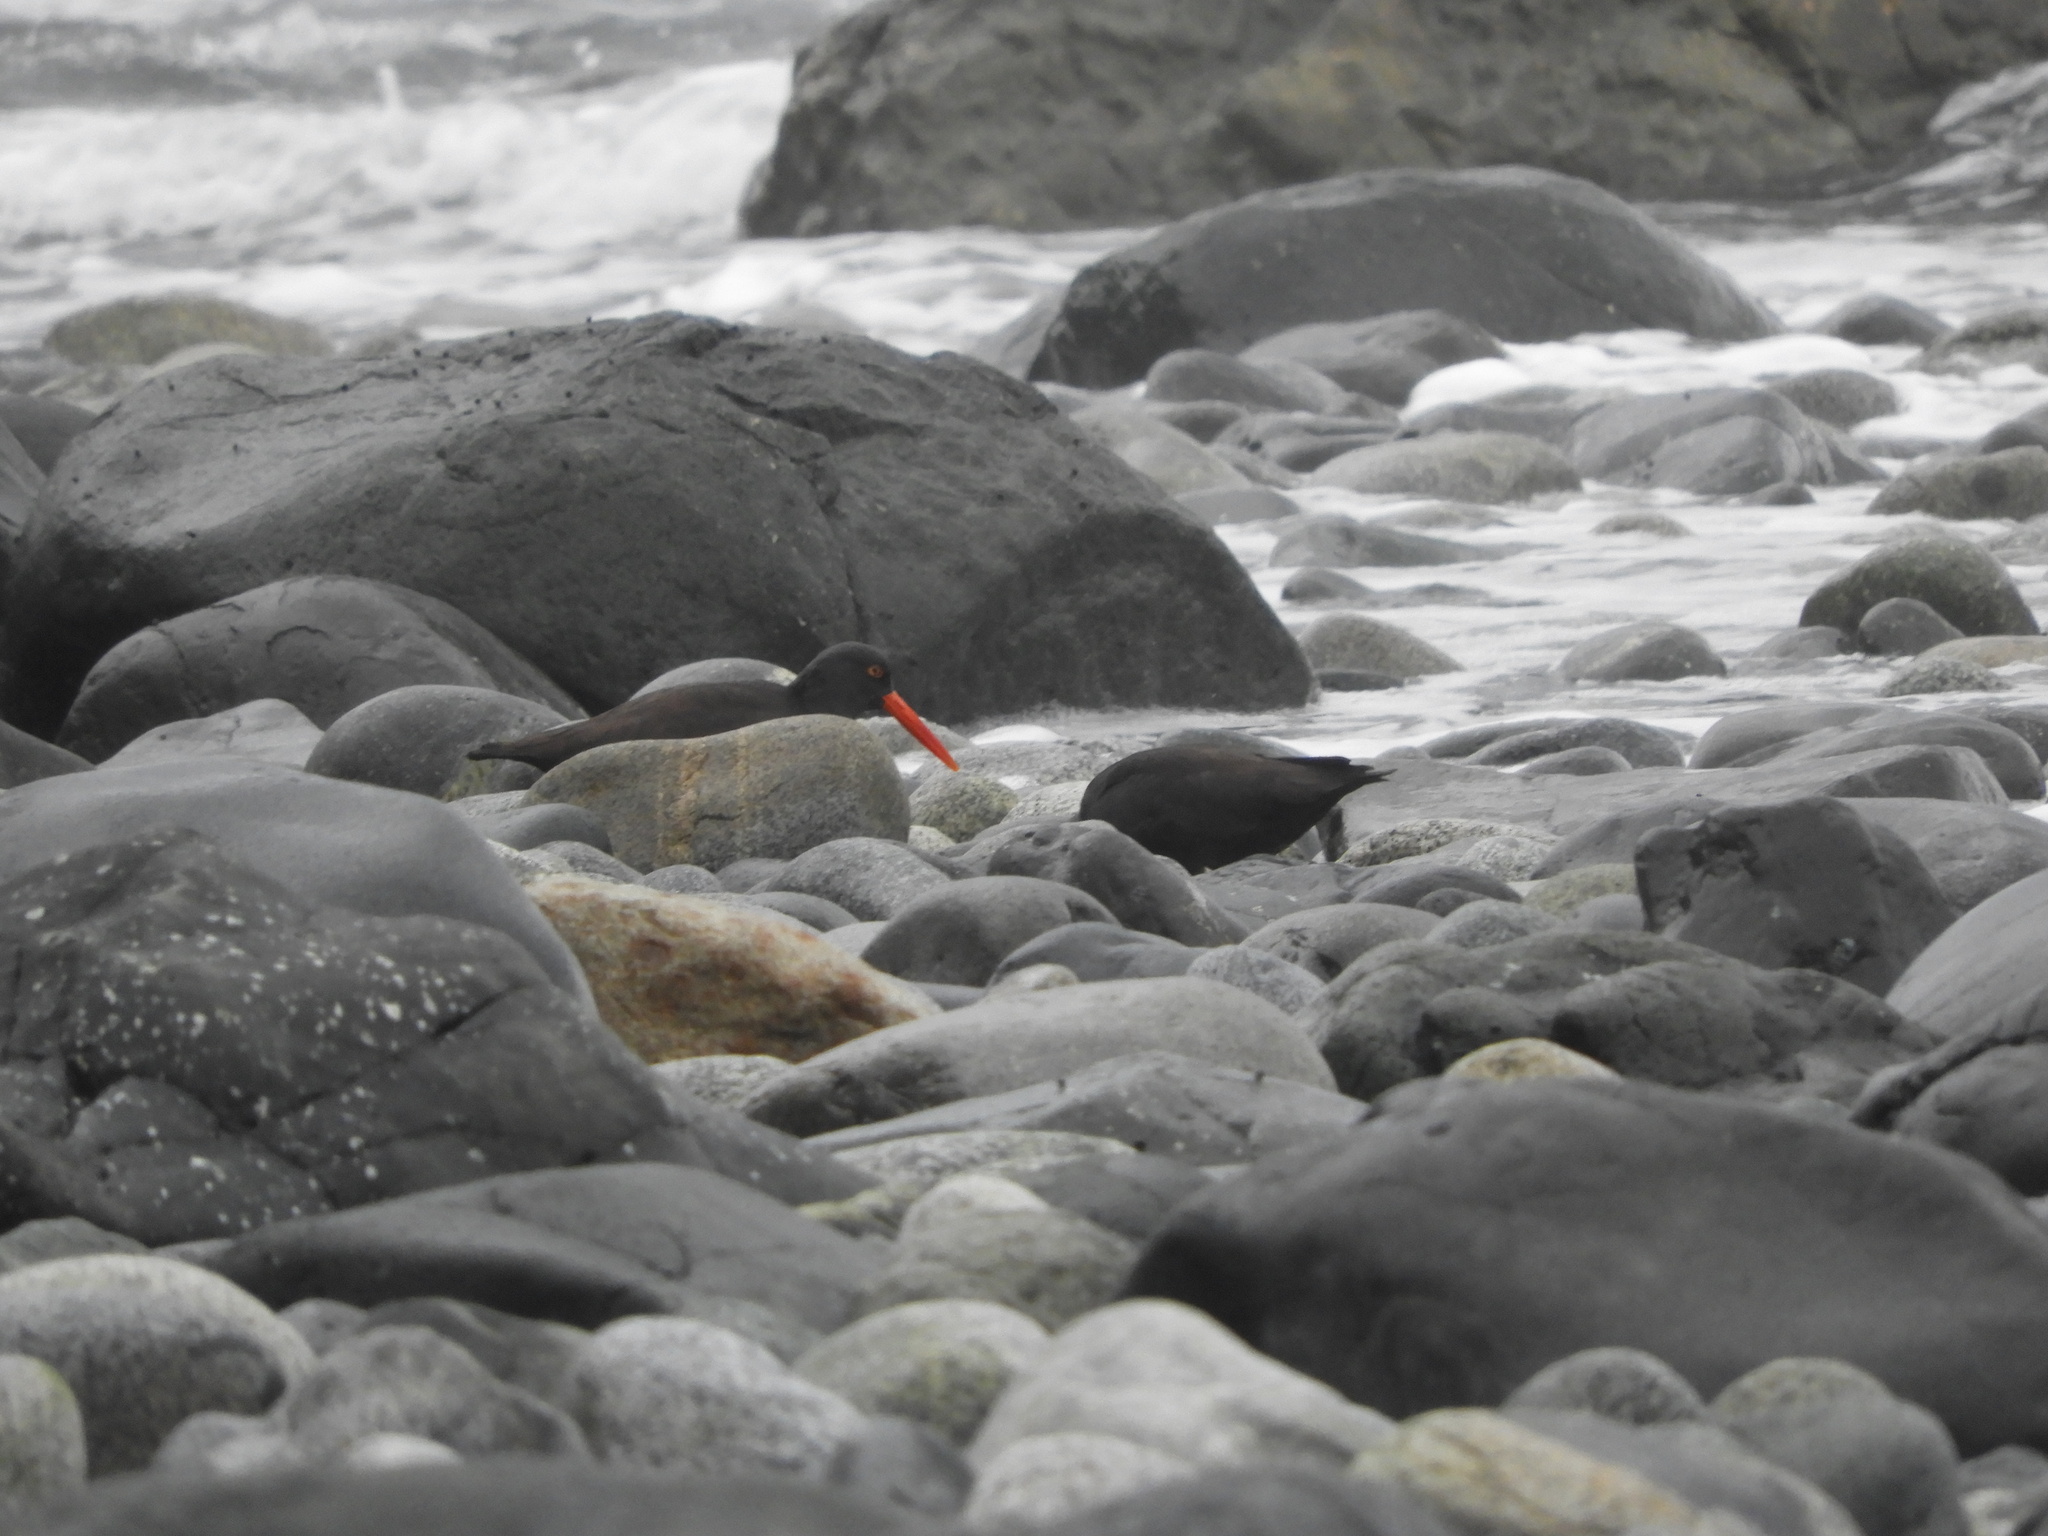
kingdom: Animalia
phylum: Chordata
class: Aves
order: Charadriiformes
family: Haematopodidae
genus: Haematopus
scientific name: Haematopus bachmani
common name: Black oystercatcher
